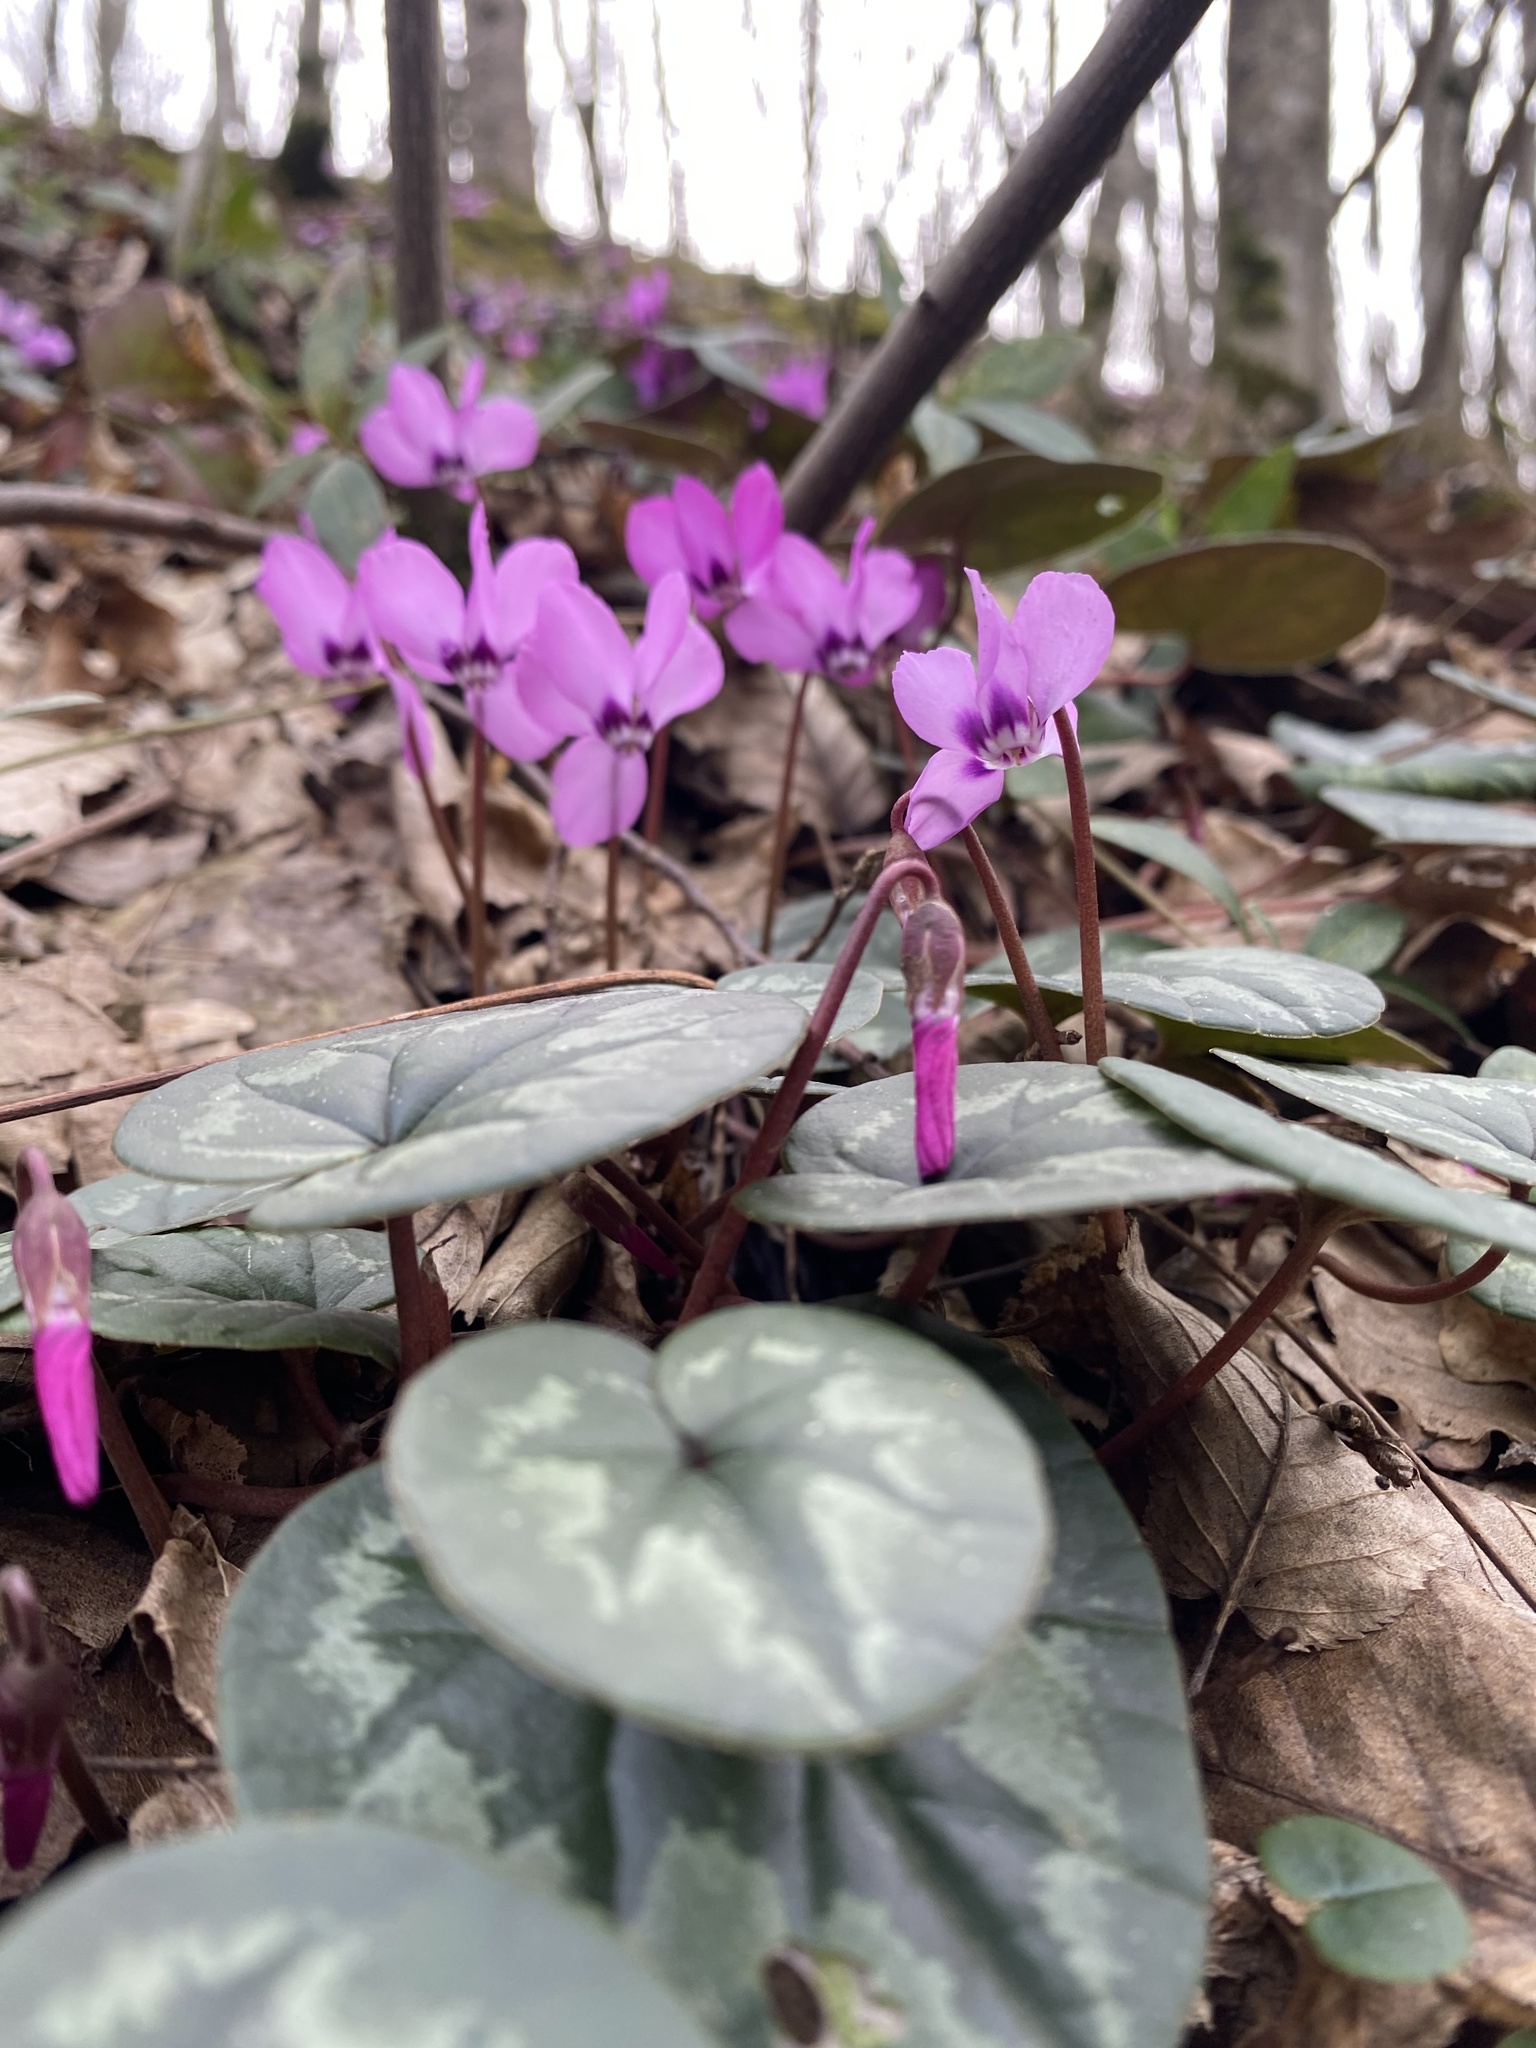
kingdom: Plantae
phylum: Tracheophyta
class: Magnoliopsida
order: Ericales
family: Primulaceae
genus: Cyclamen
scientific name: Cyclamen coum
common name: Eastern sowbread
